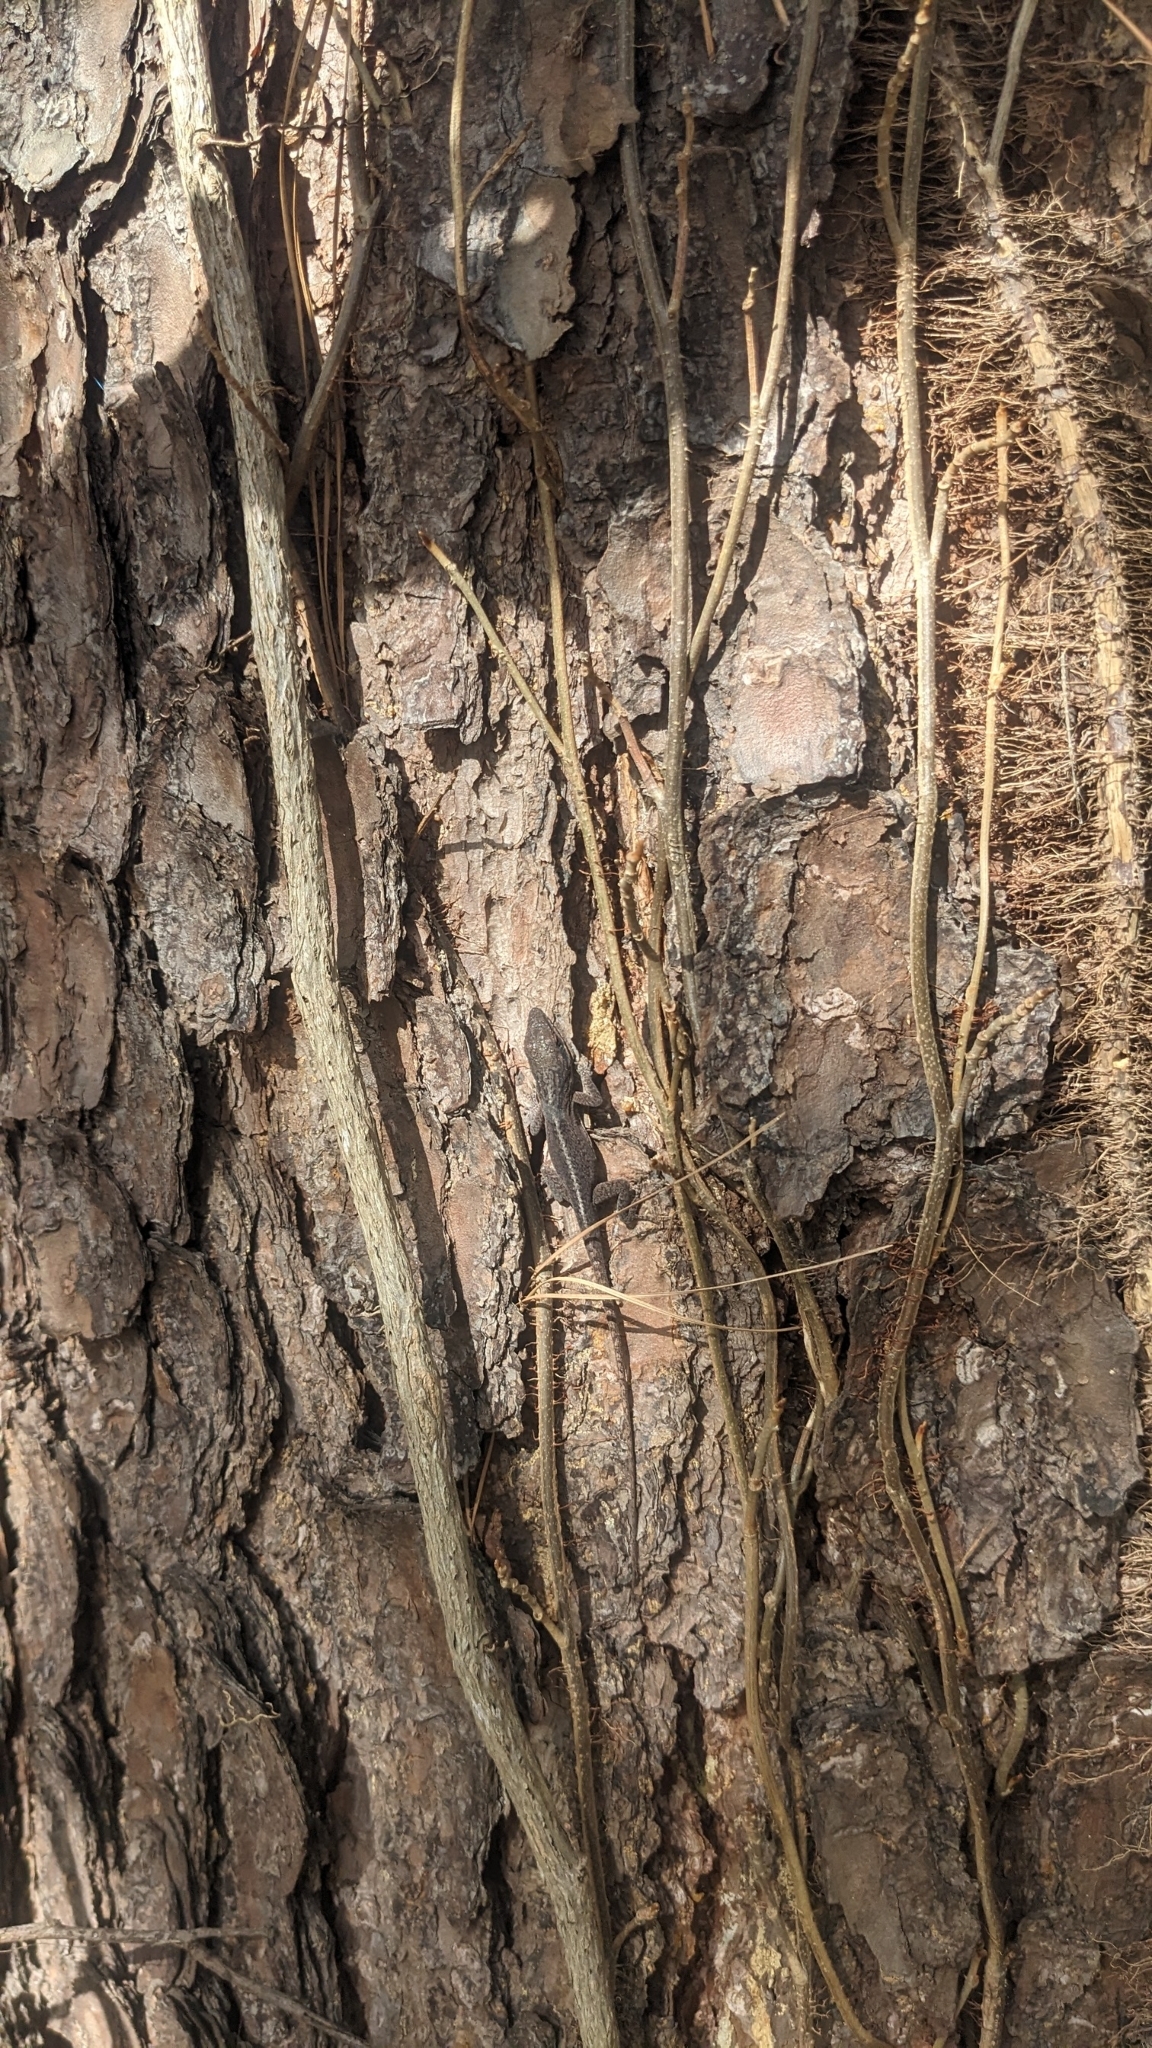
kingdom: Animalia
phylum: Chordata
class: Squamata
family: Dactyloidae
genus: Anolis
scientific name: Anolis carolinensis
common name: Green anole
